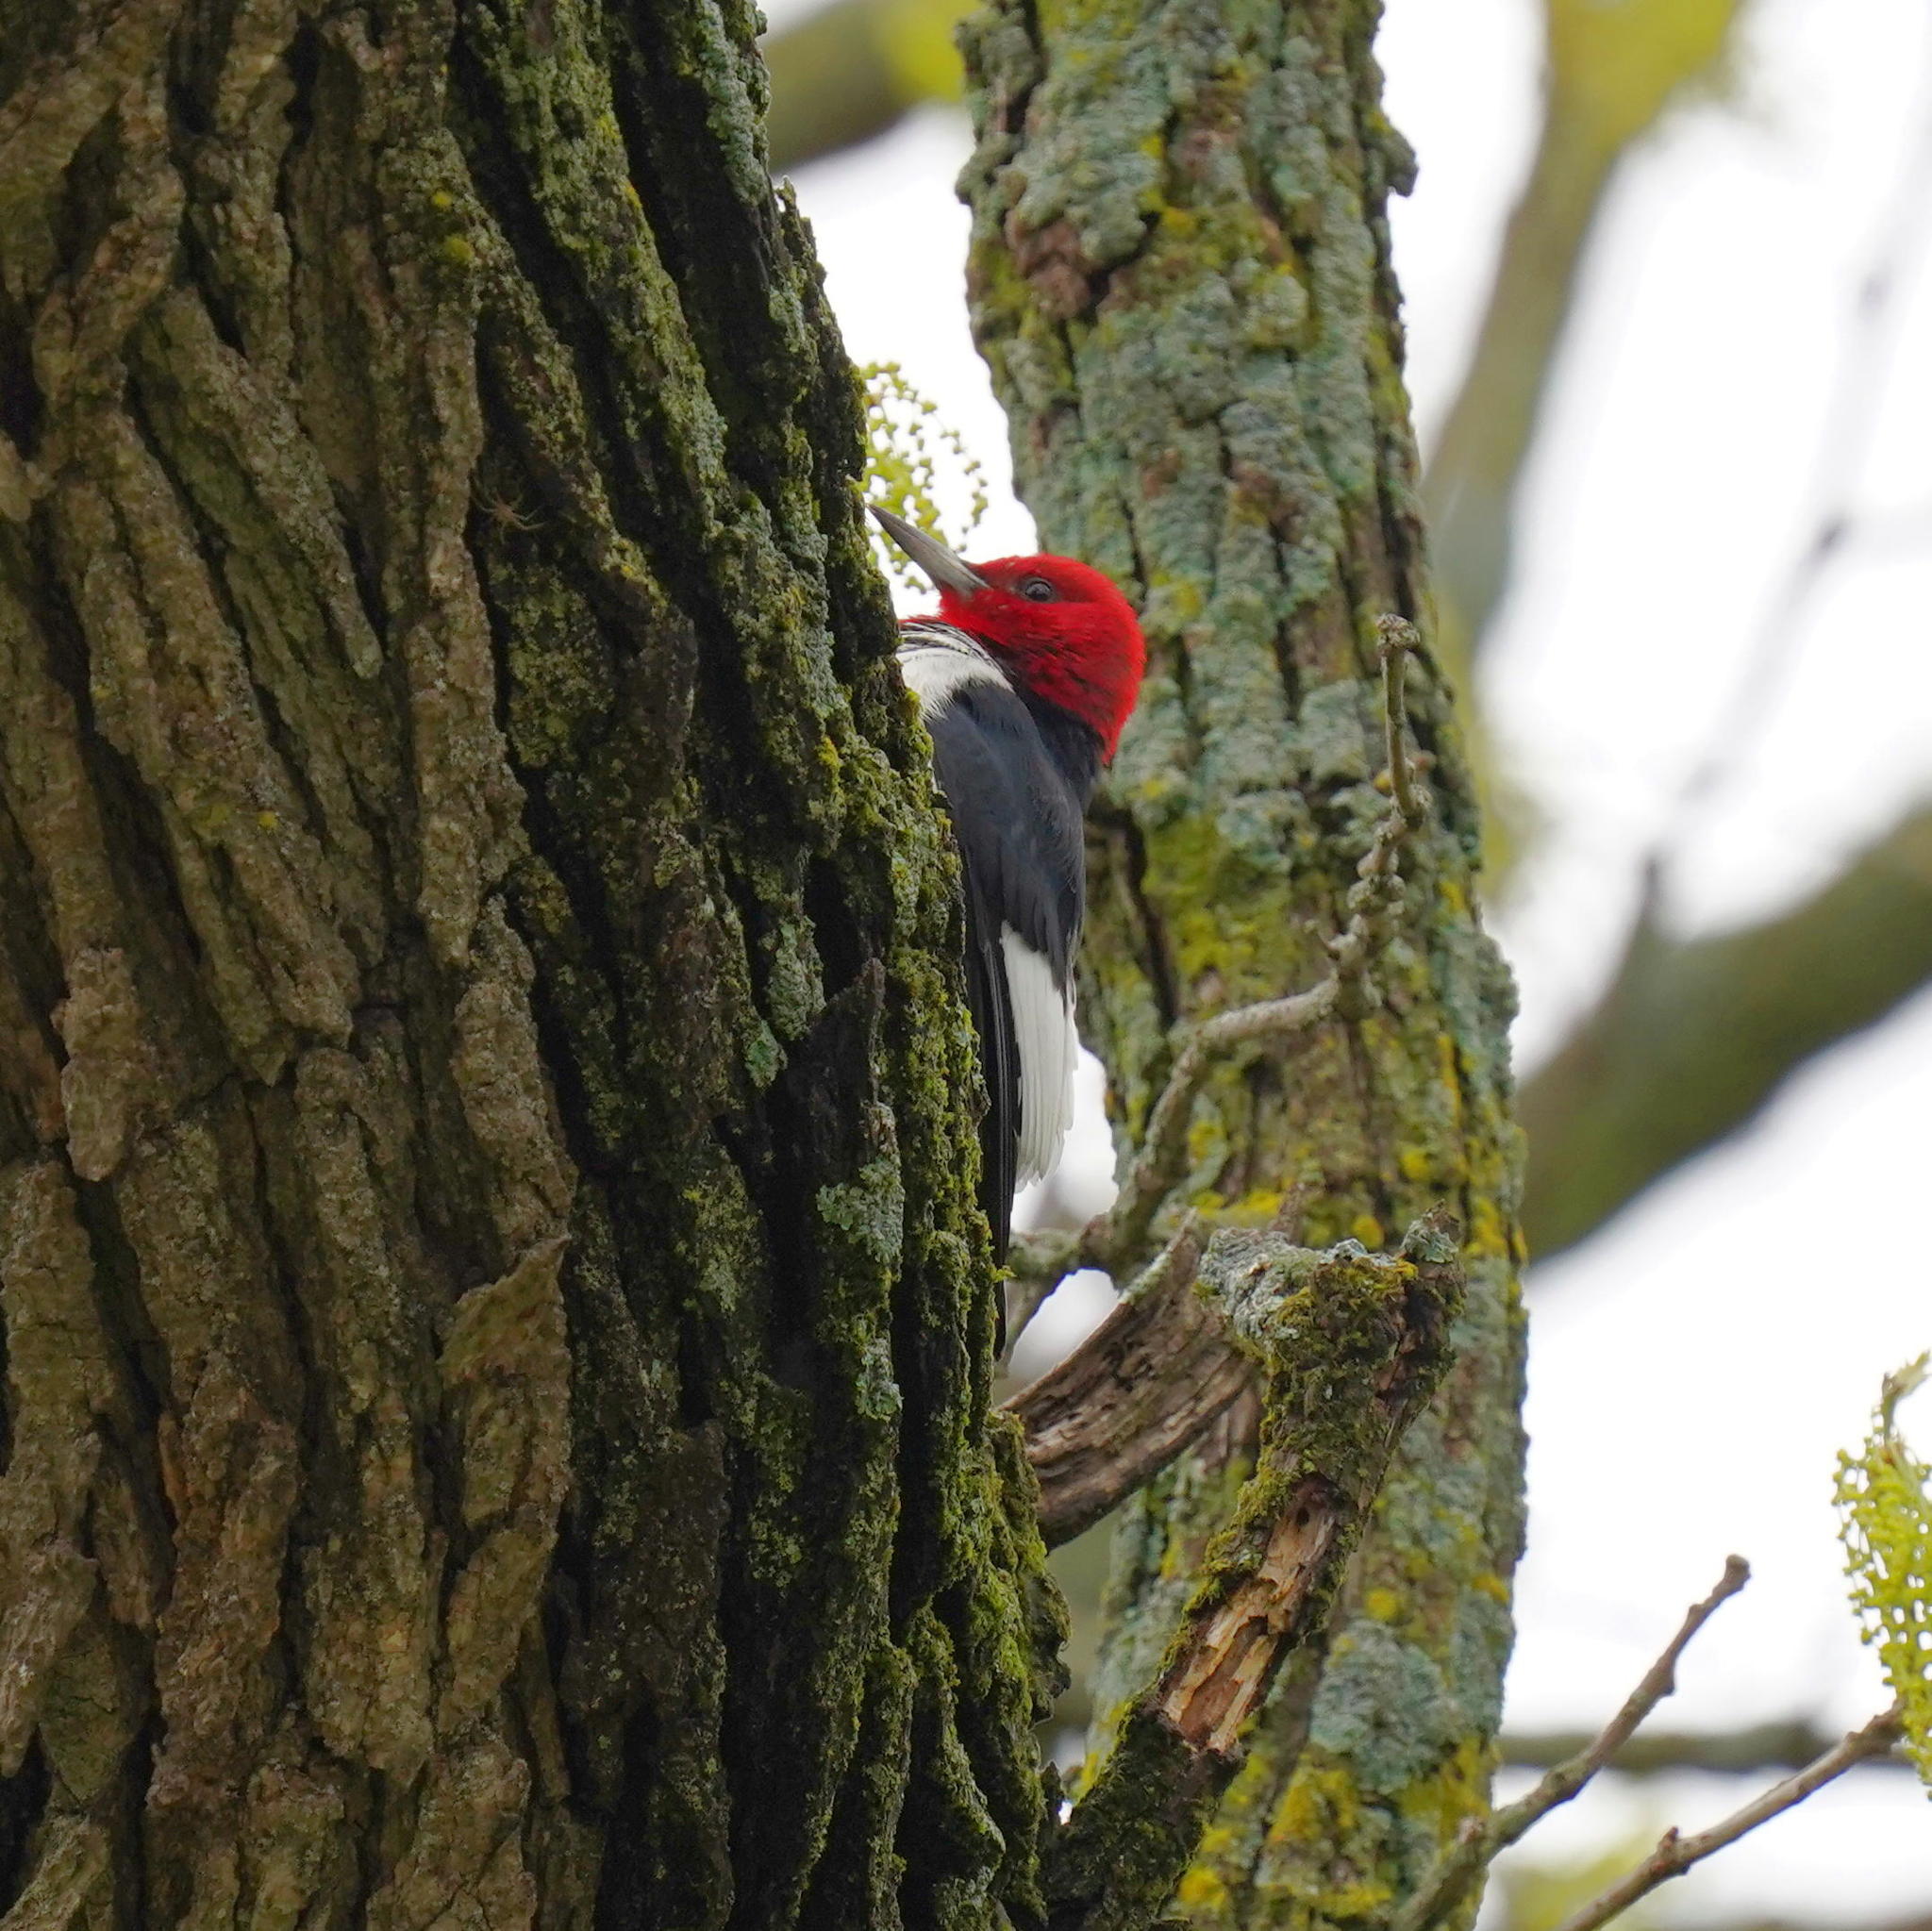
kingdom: Animalia
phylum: Chordata
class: Aves
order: Piciformes
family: Picidae
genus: Melanerpes
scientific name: Melanerpes erythrocephalus
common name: Red-headed woodpecker
